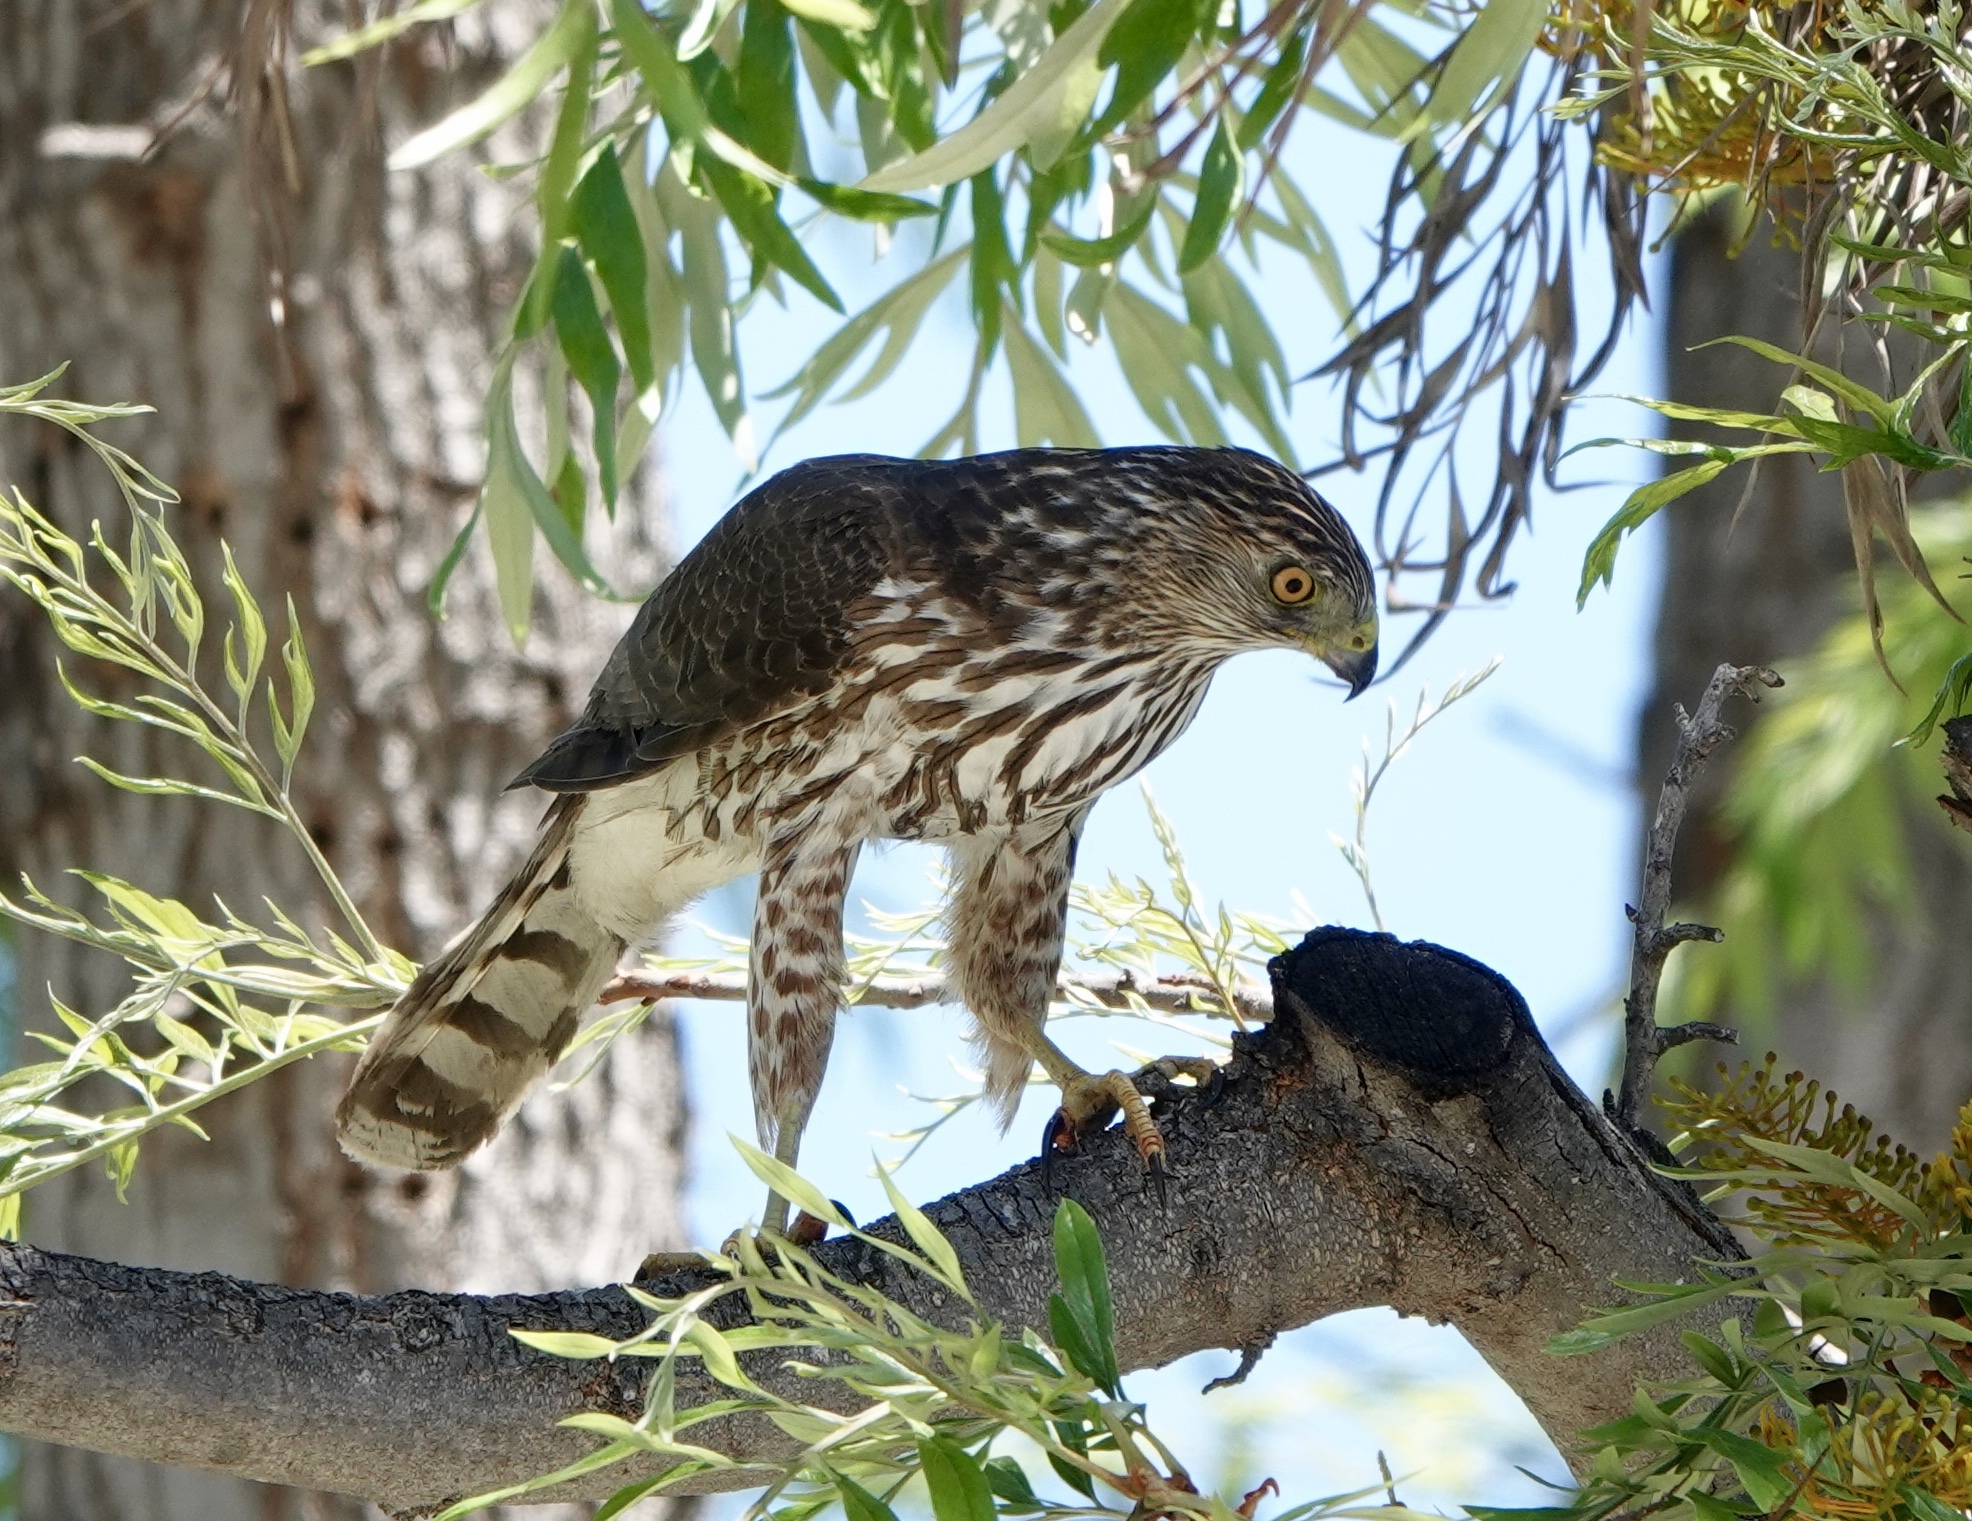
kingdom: Animalia
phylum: Chordata
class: Aves
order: Accipitriformes
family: Accipitridae
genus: Accipiter
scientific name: Accipiter cooperii
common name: Cooper's hawk
